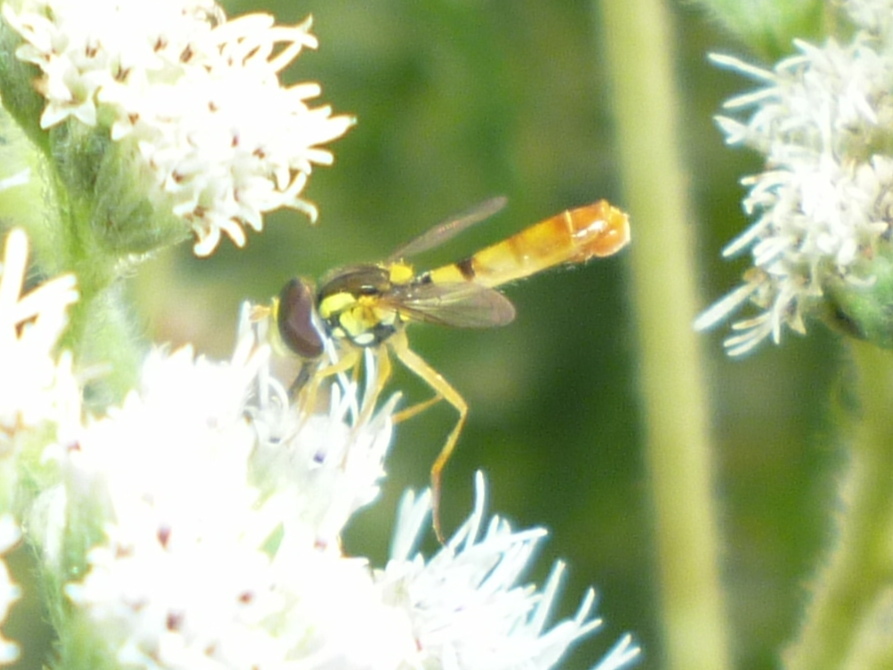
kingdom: Animalia
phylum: Arthropoda
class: Insecta
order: Diptera
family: Syrphidae
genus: Sphaerophoria
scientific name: Sphaerophoria contigua
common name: Tufted globetail
